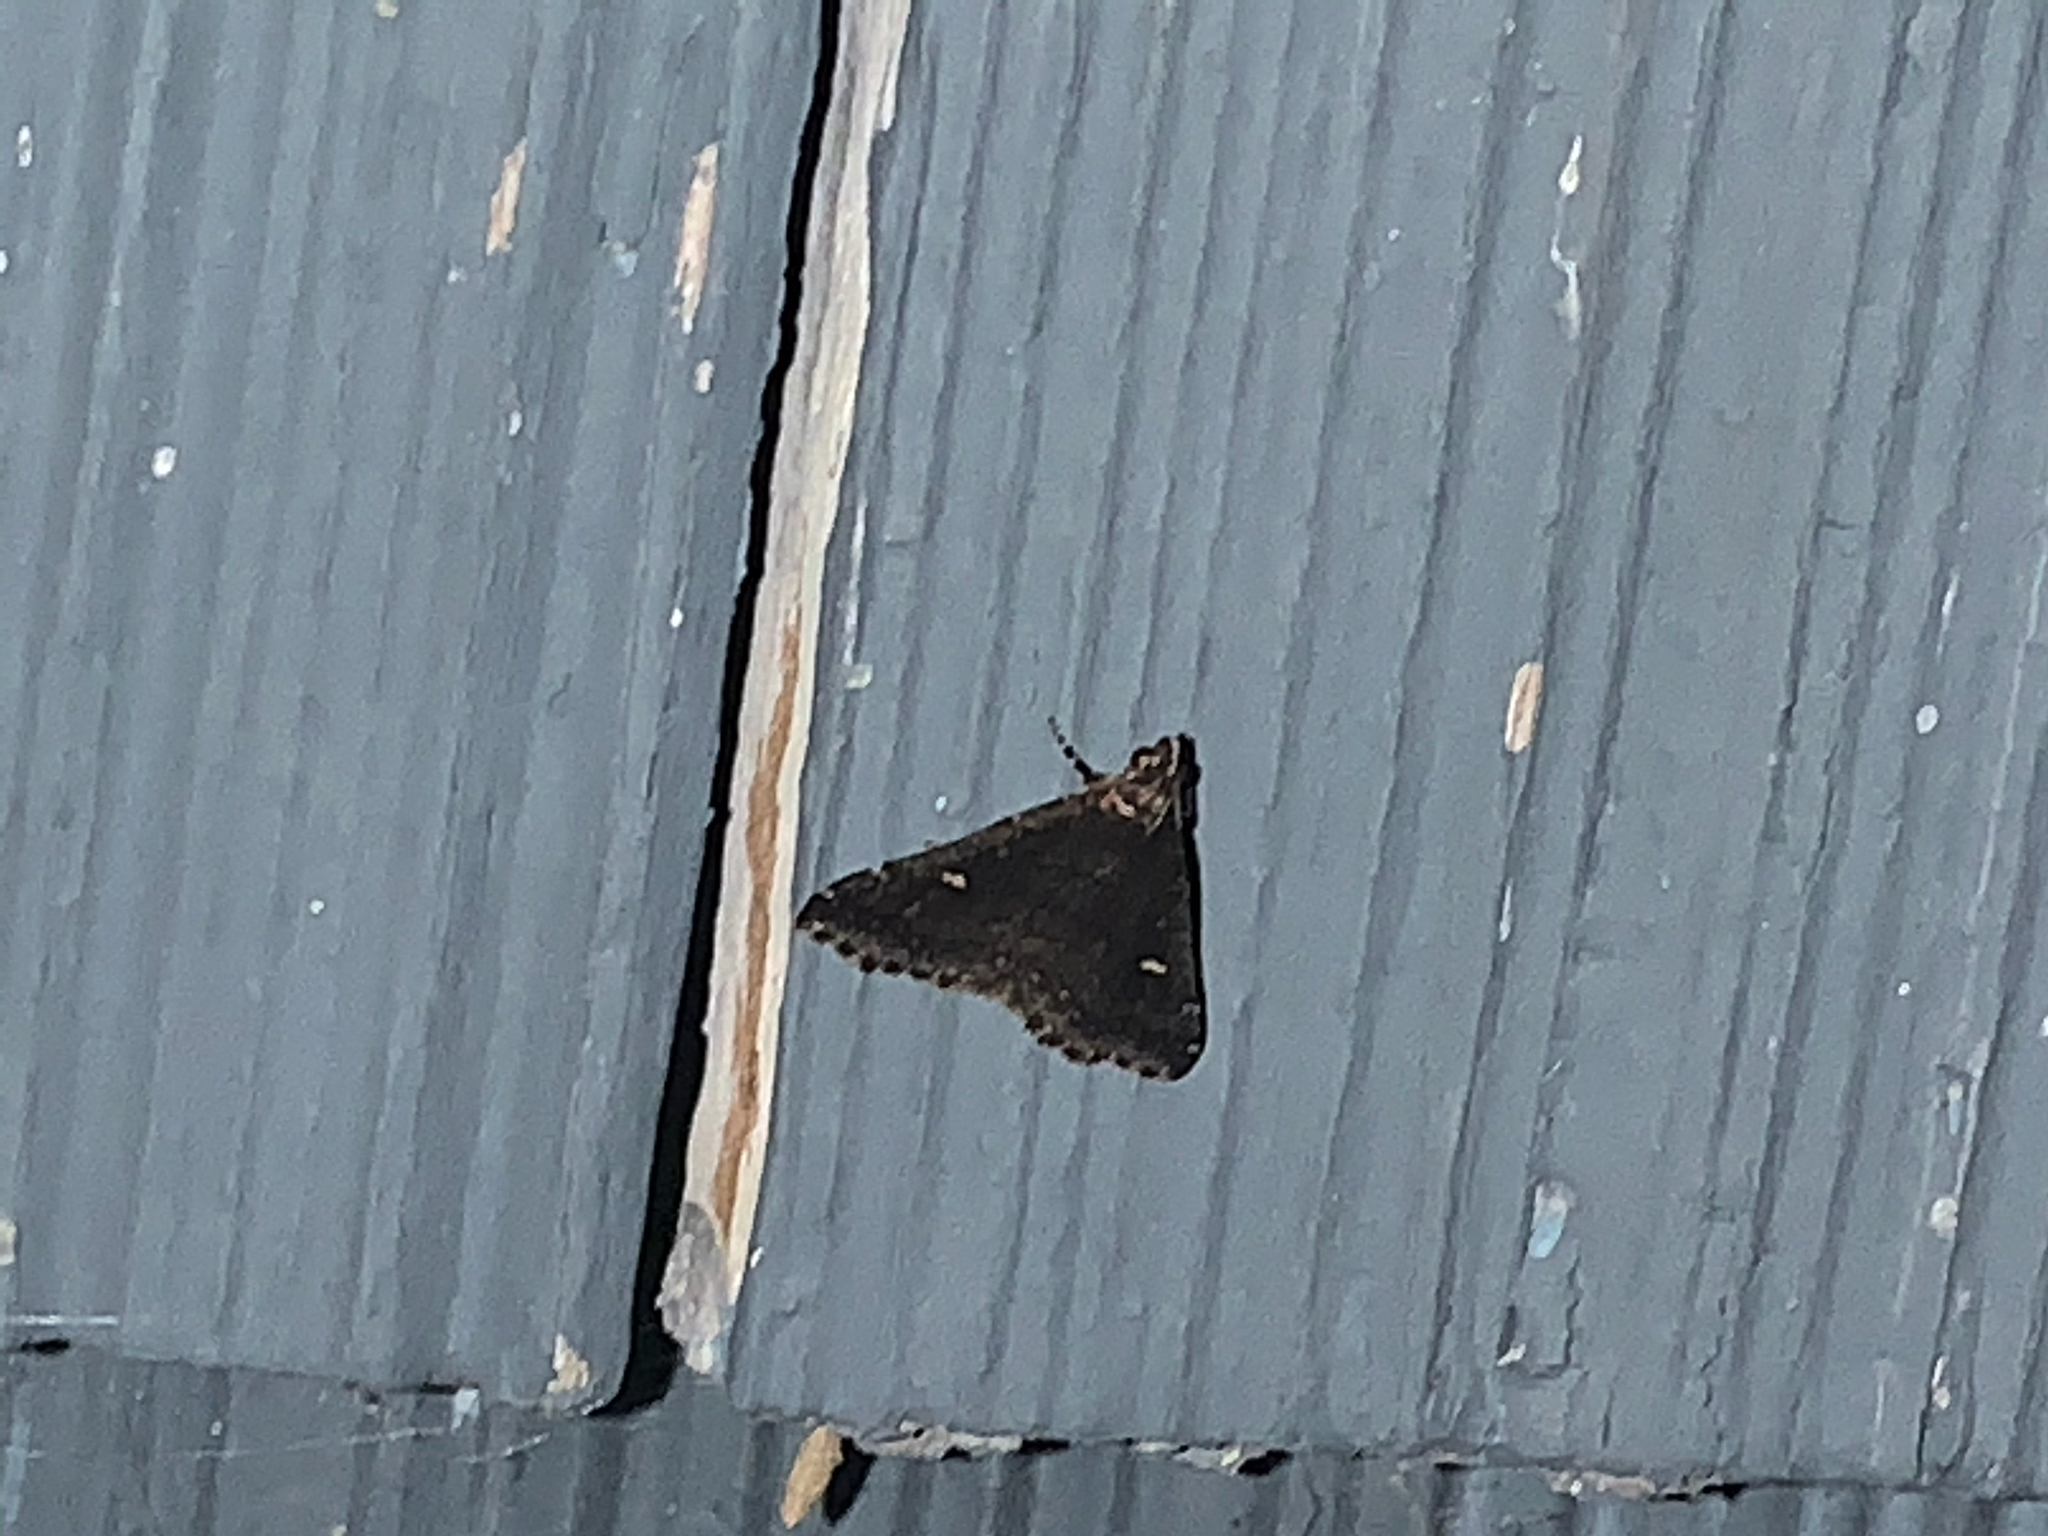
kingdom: Animalia
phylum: Arthropoda
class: Insecta
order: Lepidoptera
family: Erebidae
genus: Tetanolita
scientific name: Tetanolita mynesalis
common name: Smoky tetanolita moth
